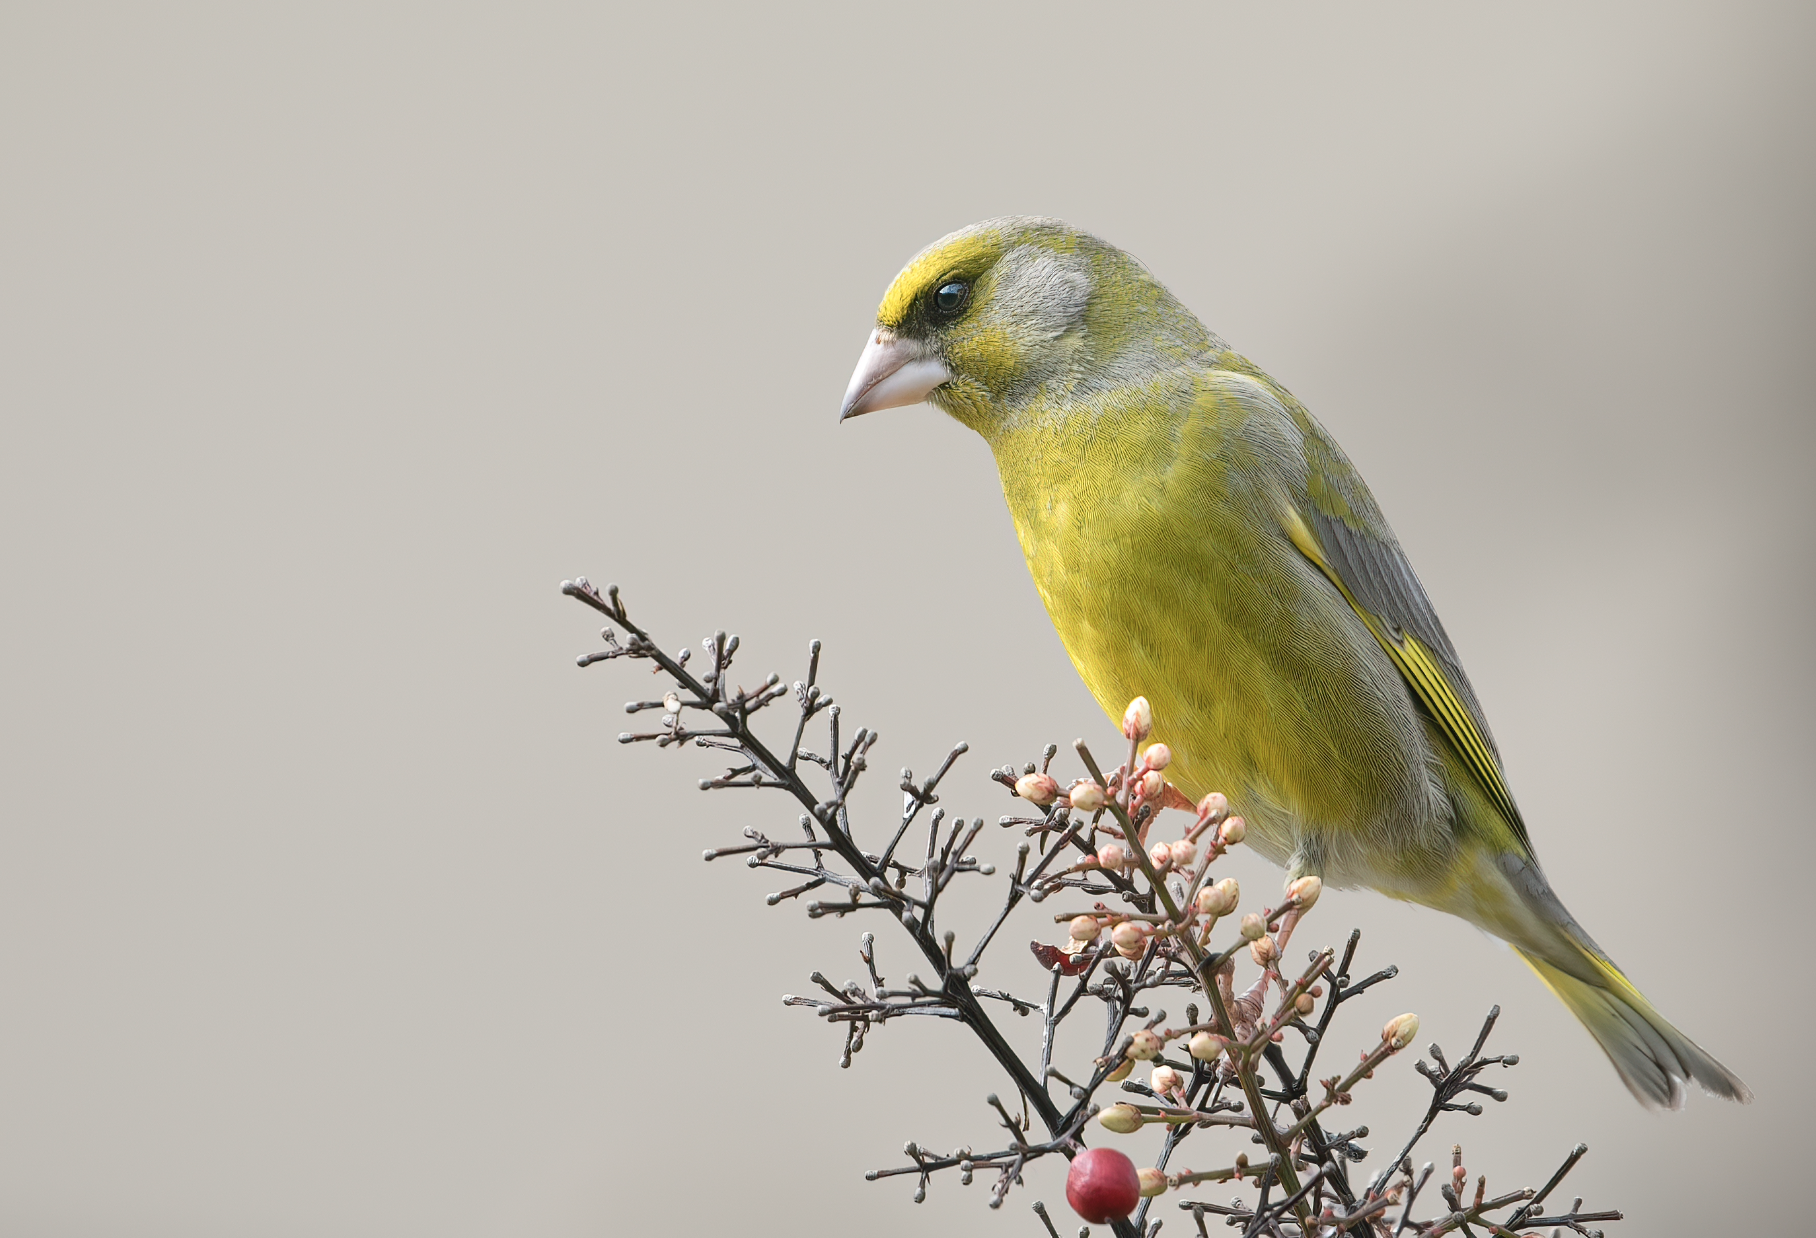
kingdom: Plantae
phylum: Tracheophyta
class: Liliopsida
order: Poales
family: Poaceae
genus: Chloris
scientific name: Chloris chloris
